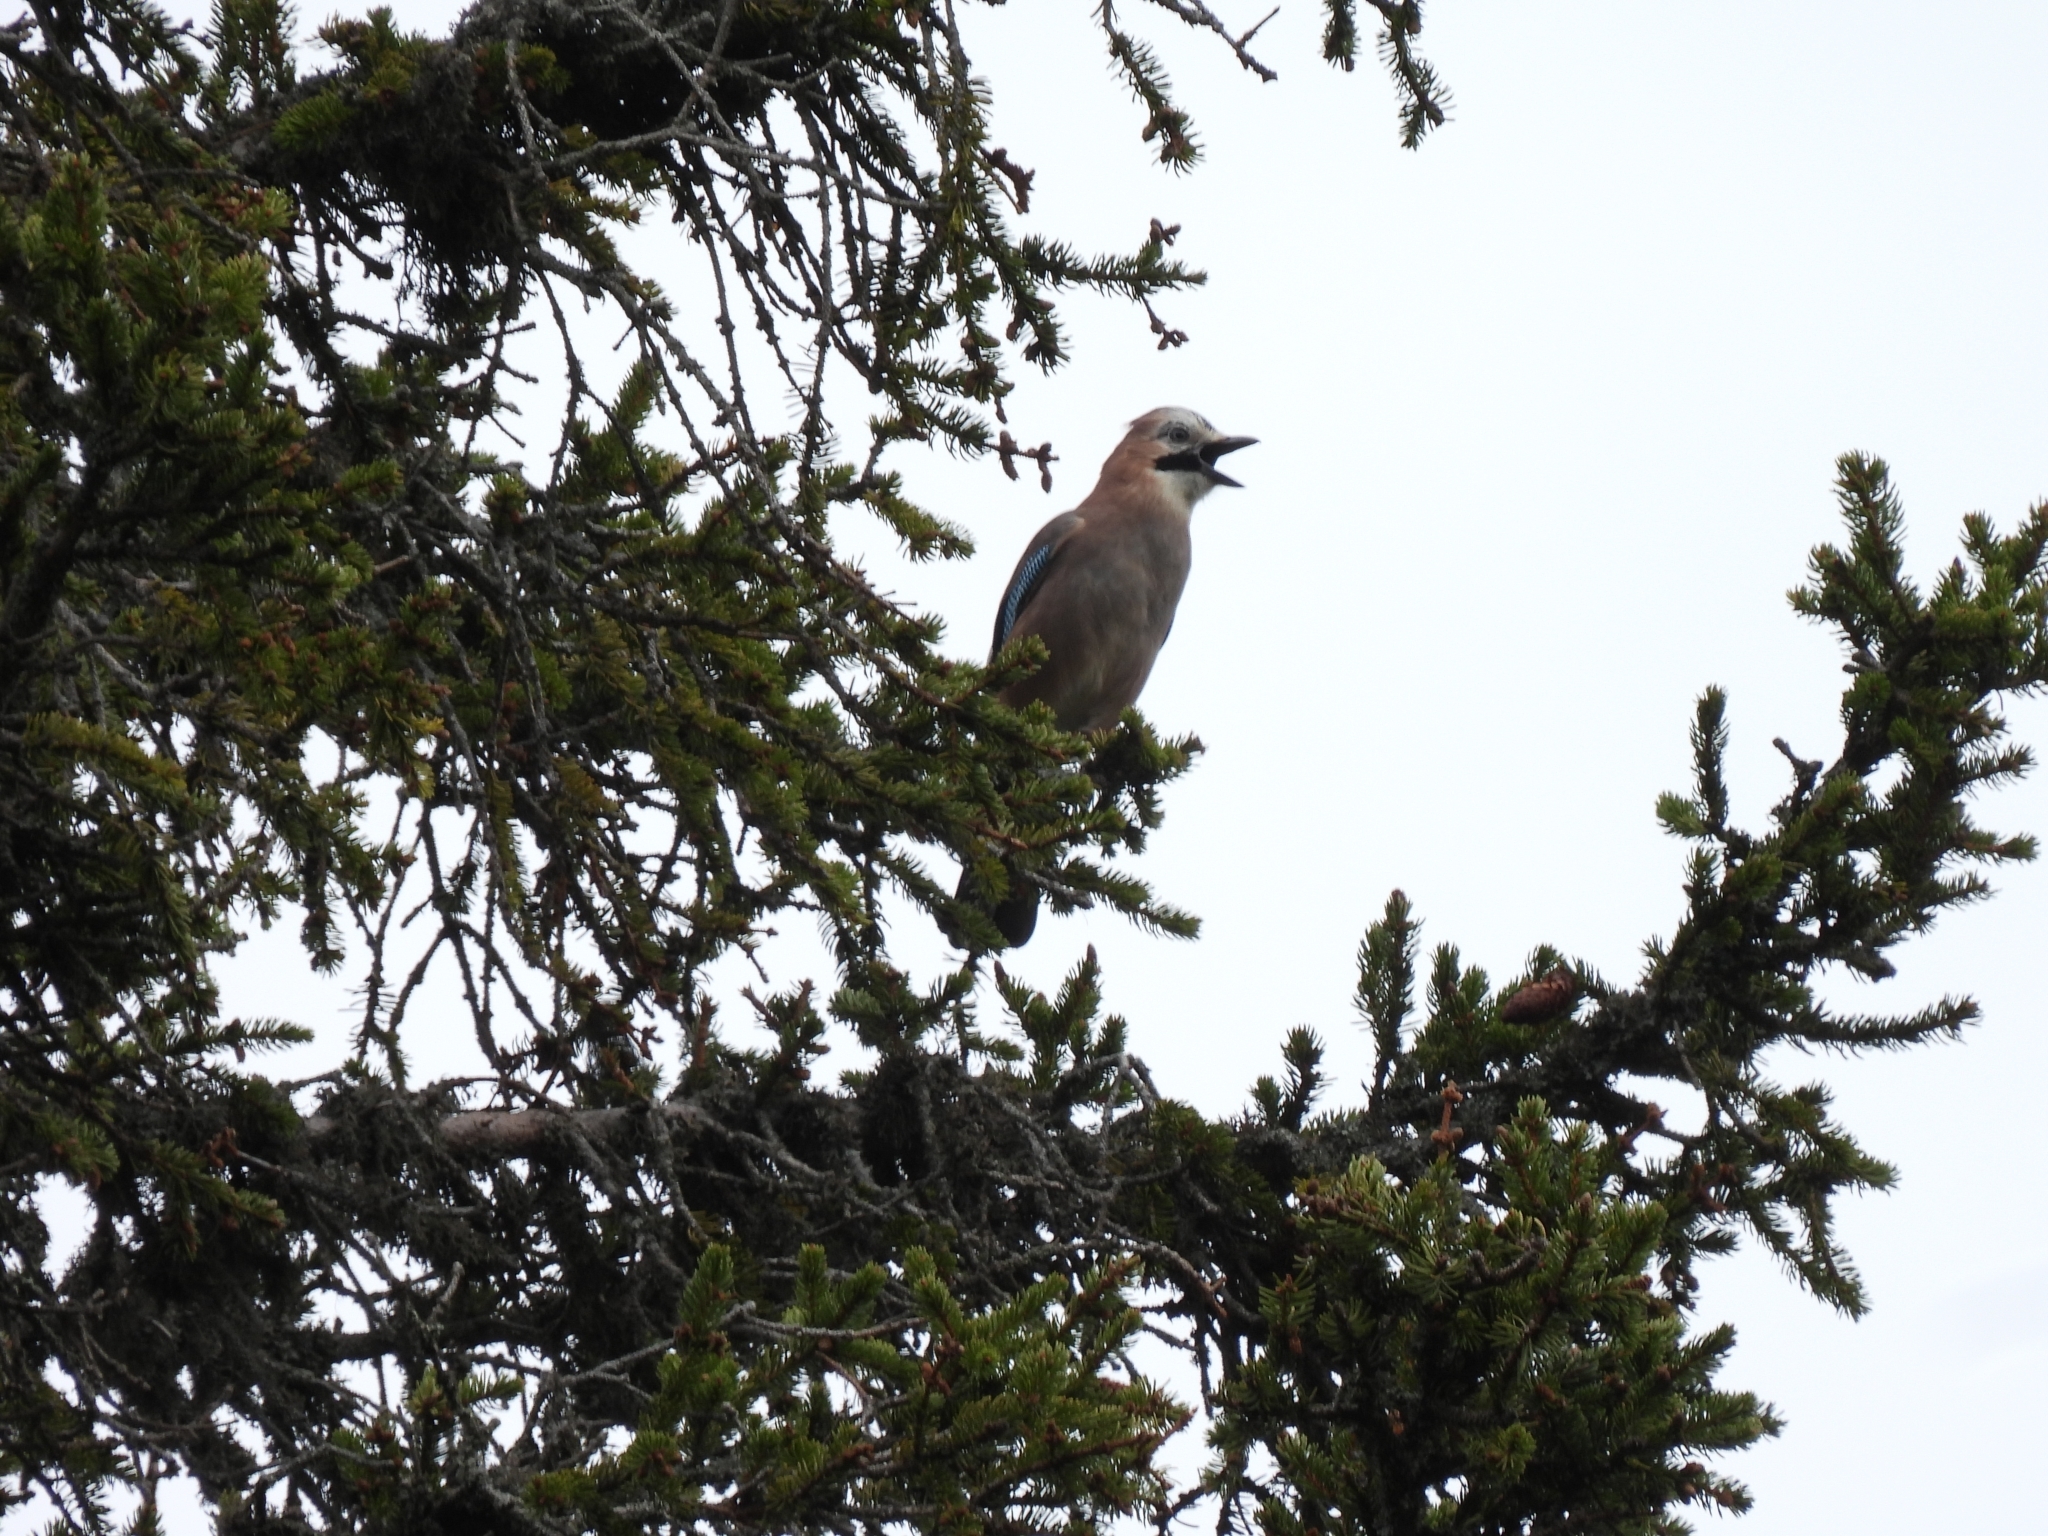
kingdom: Animalia
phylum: Chordata
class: Aves
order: Passeriformes
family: Corvidae
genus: Garrulus
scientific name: Garrulus glandarius
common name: Eurasian jay
